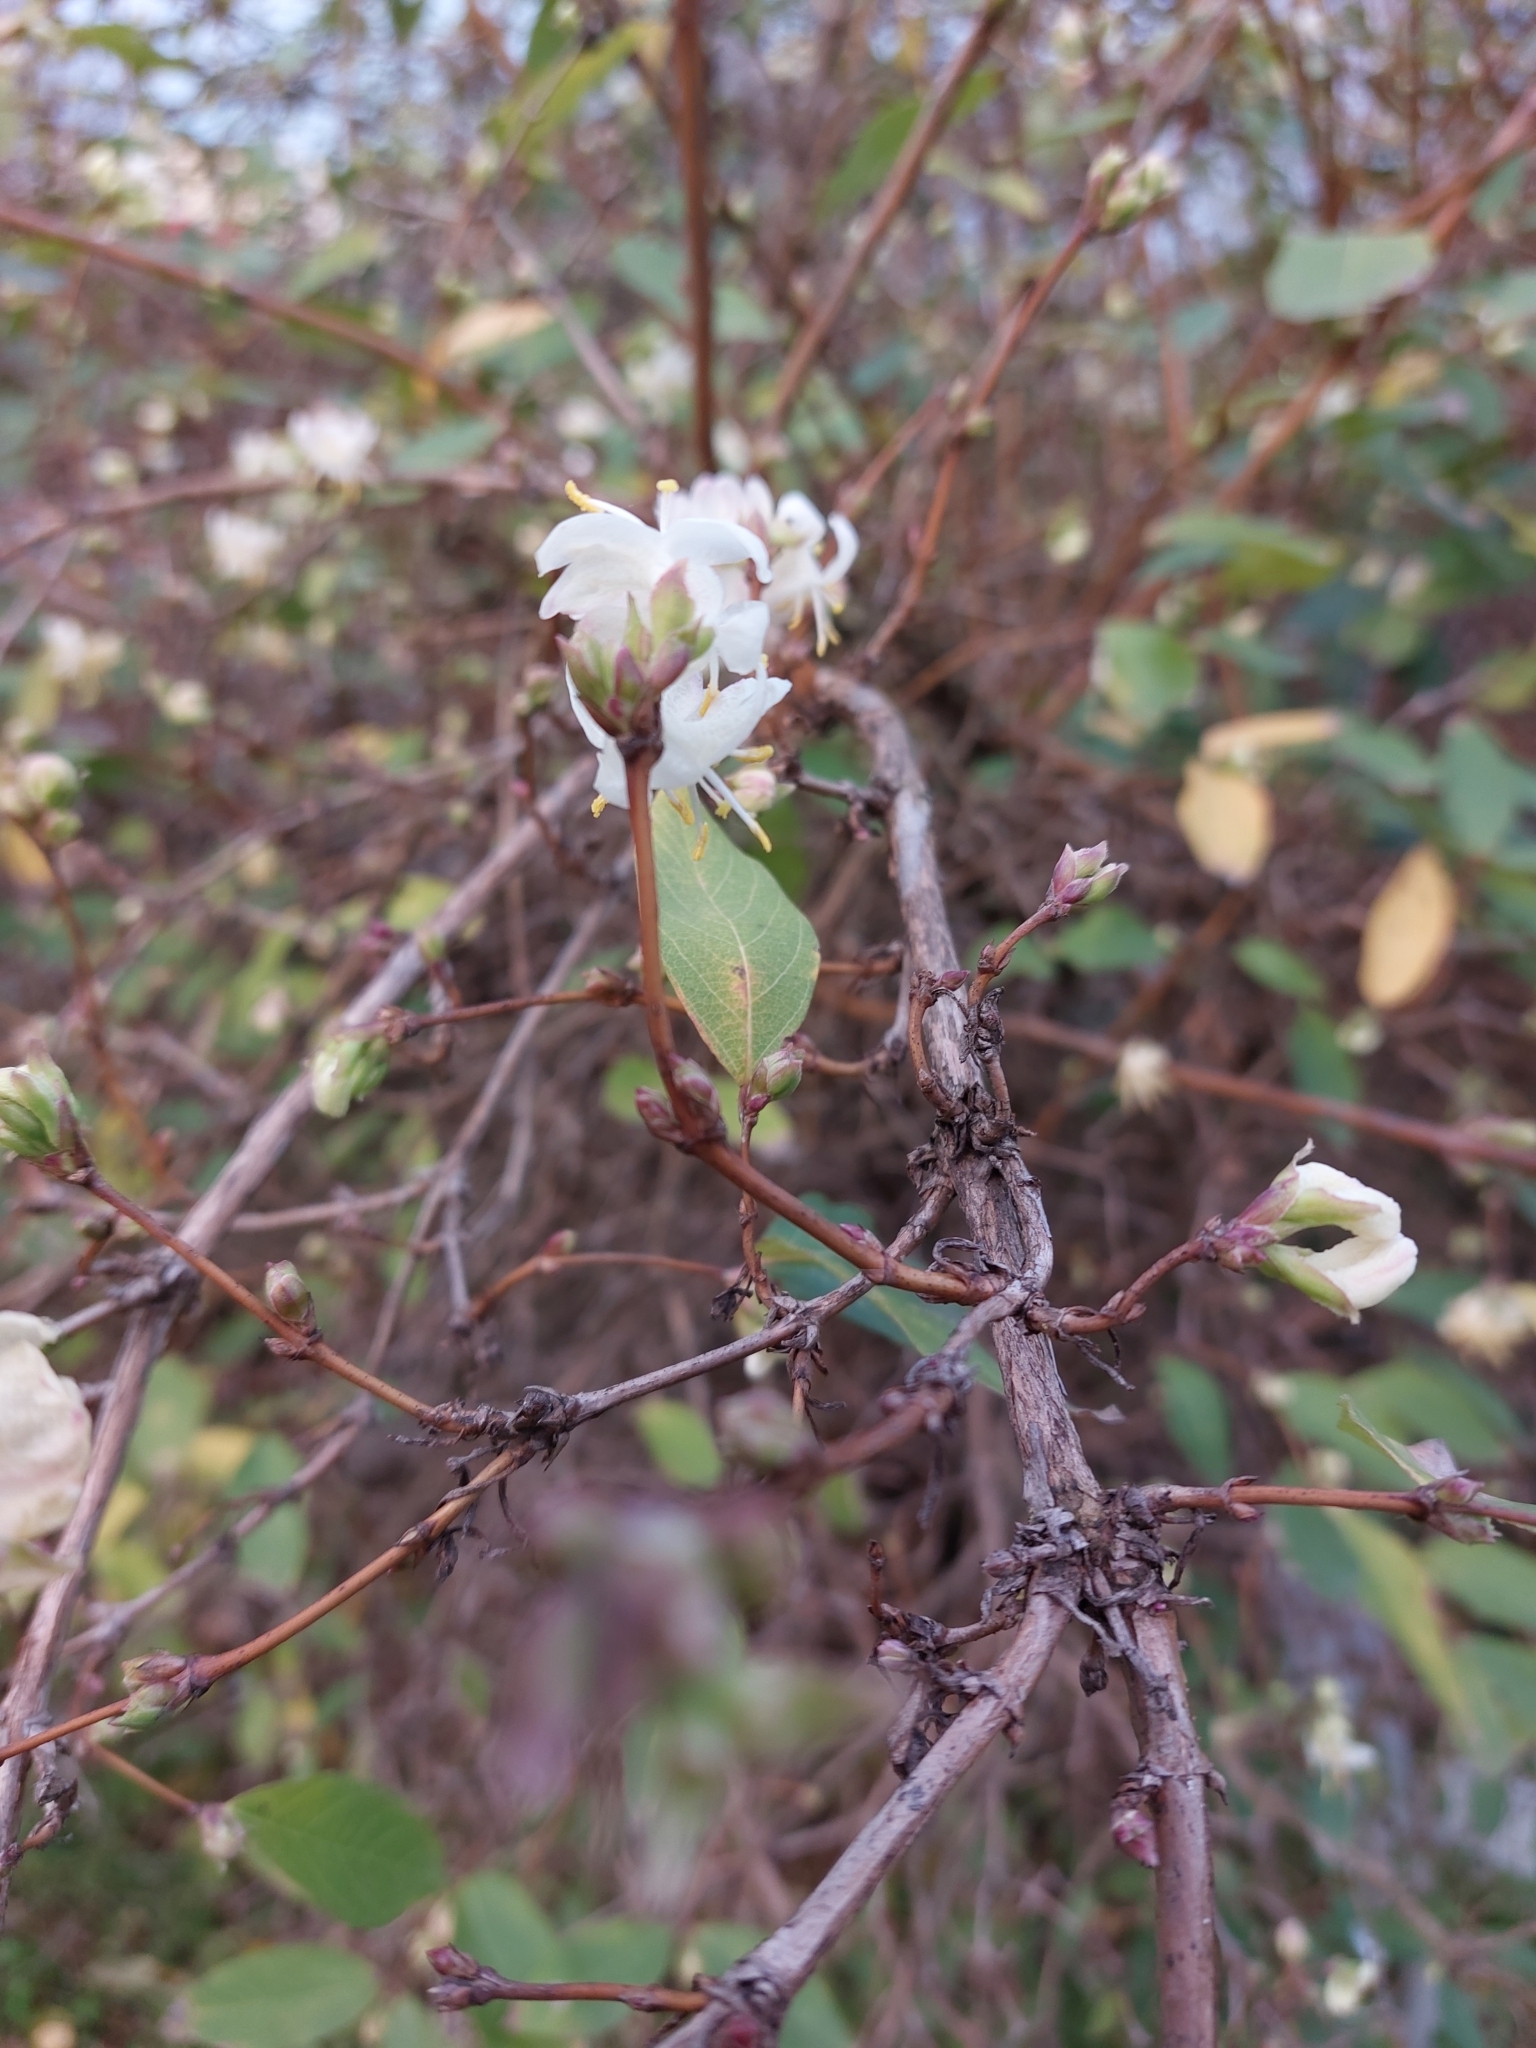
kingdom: Plantae
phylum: Tracheophyta
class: Magnoliopsida
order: Dipsacales
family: Caprifoliaceae
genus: Lonicera
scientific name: Lonicera fragrantissima
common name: Fragrant honeysuckle
